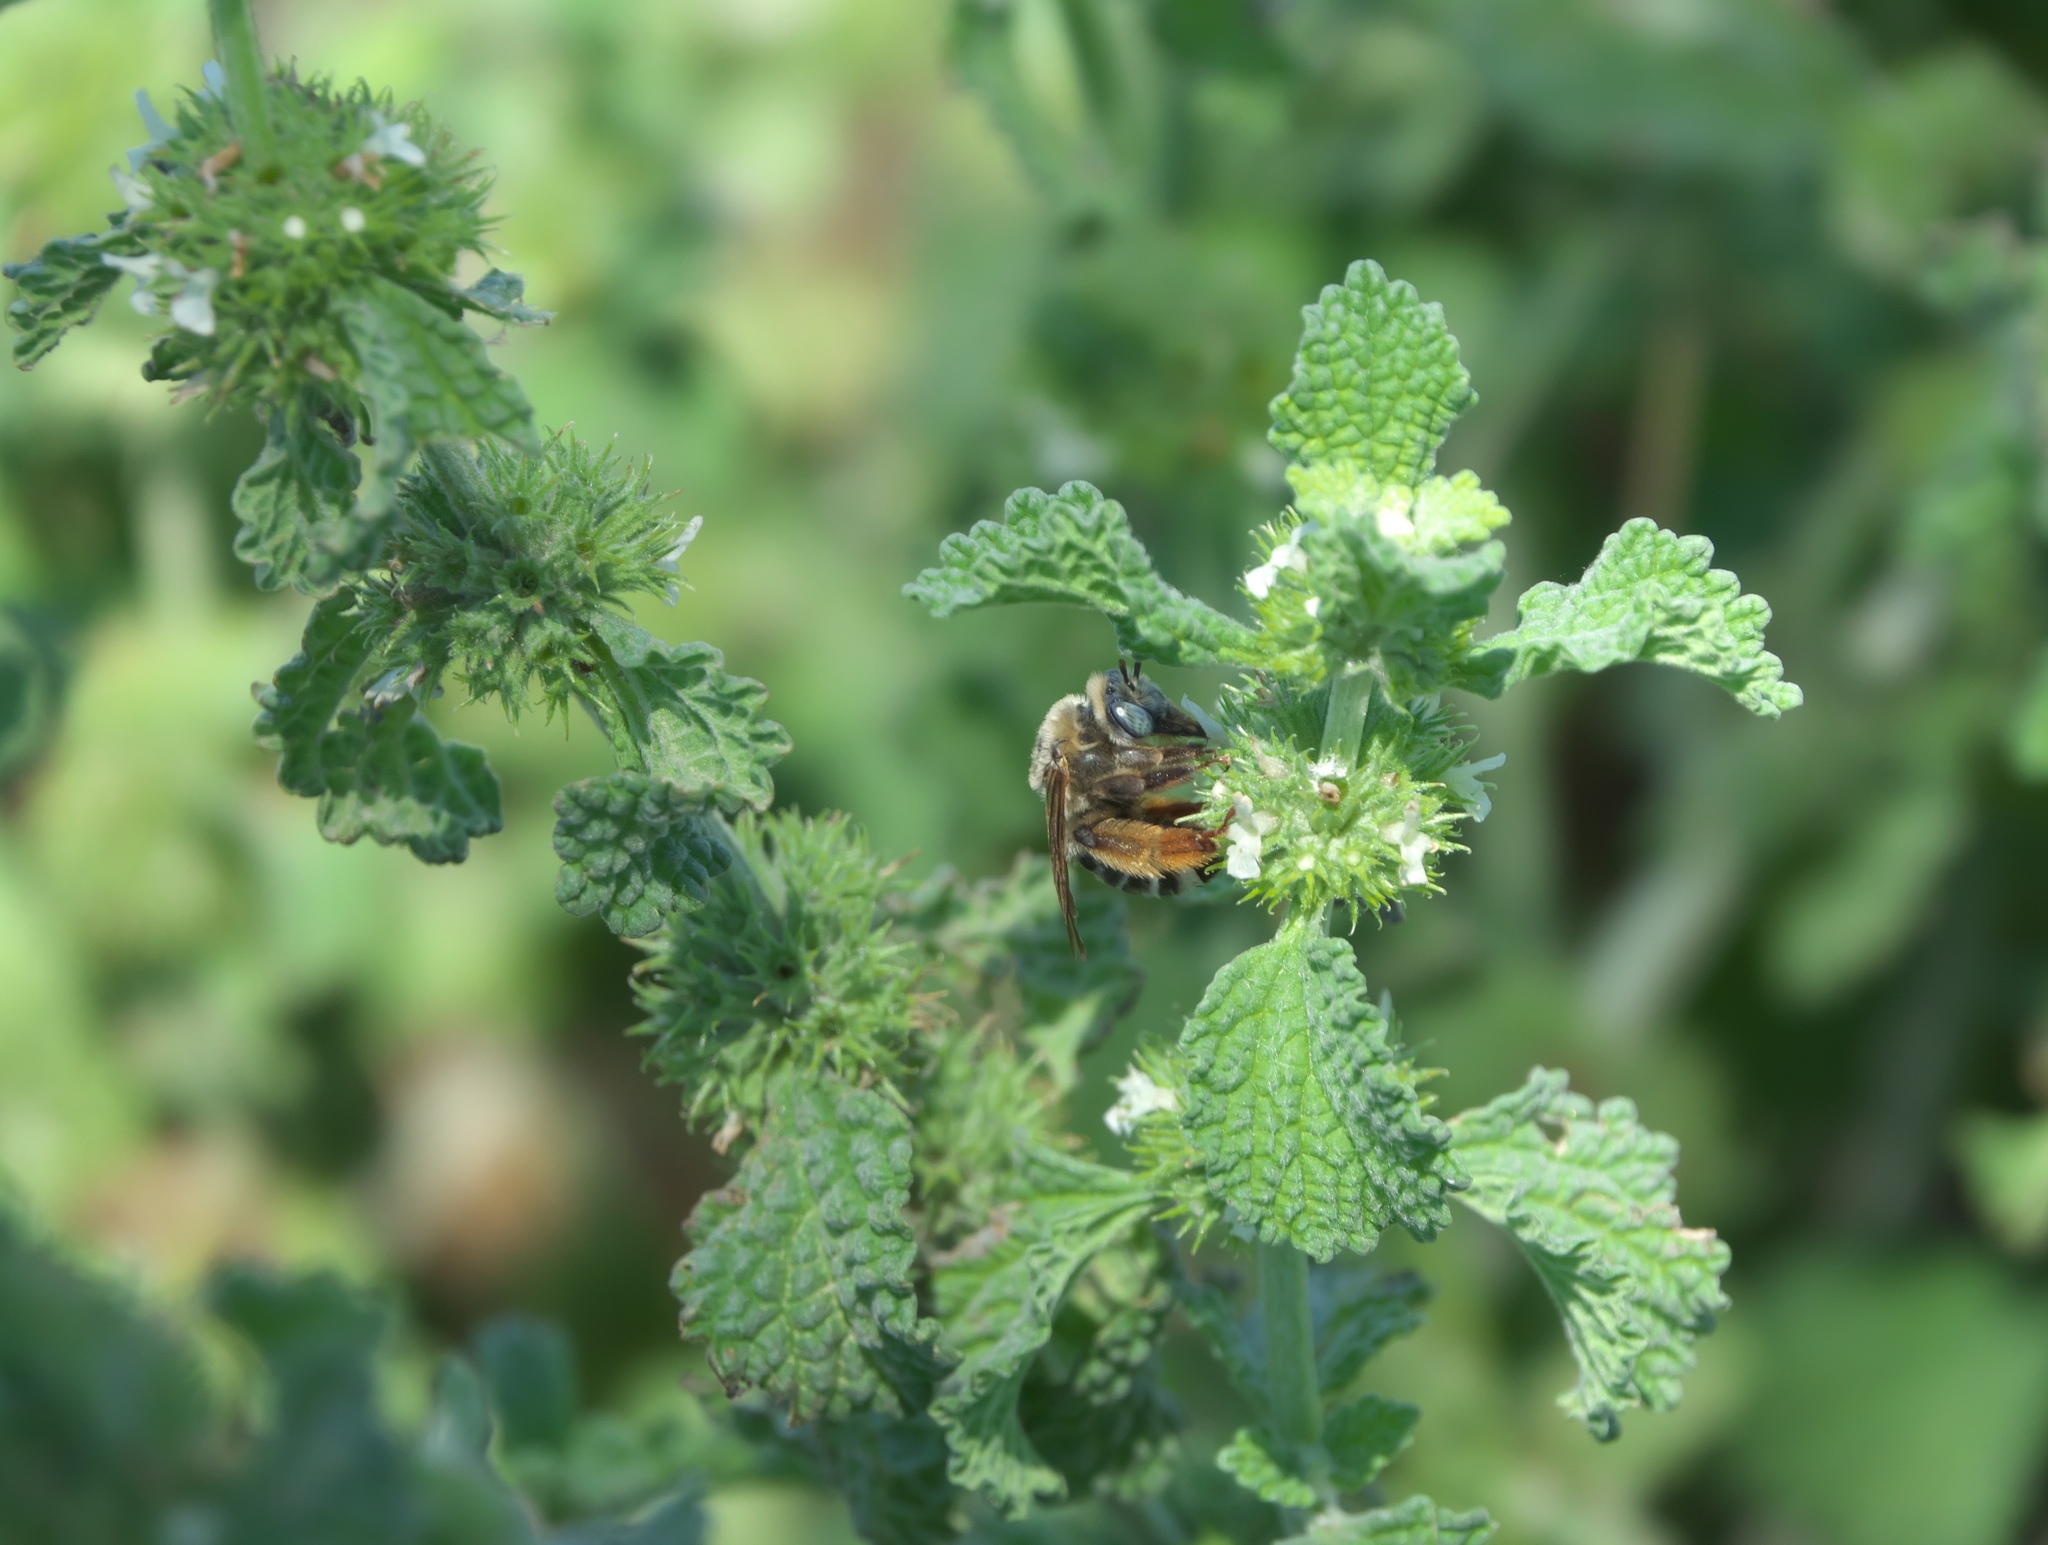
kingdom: Plantae
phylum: Tracheophyta
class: Magnoliopsida
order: Lamiales
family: Lamiaceae
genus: Marrubium
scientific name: Marrubium vulgare
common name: Horehound
